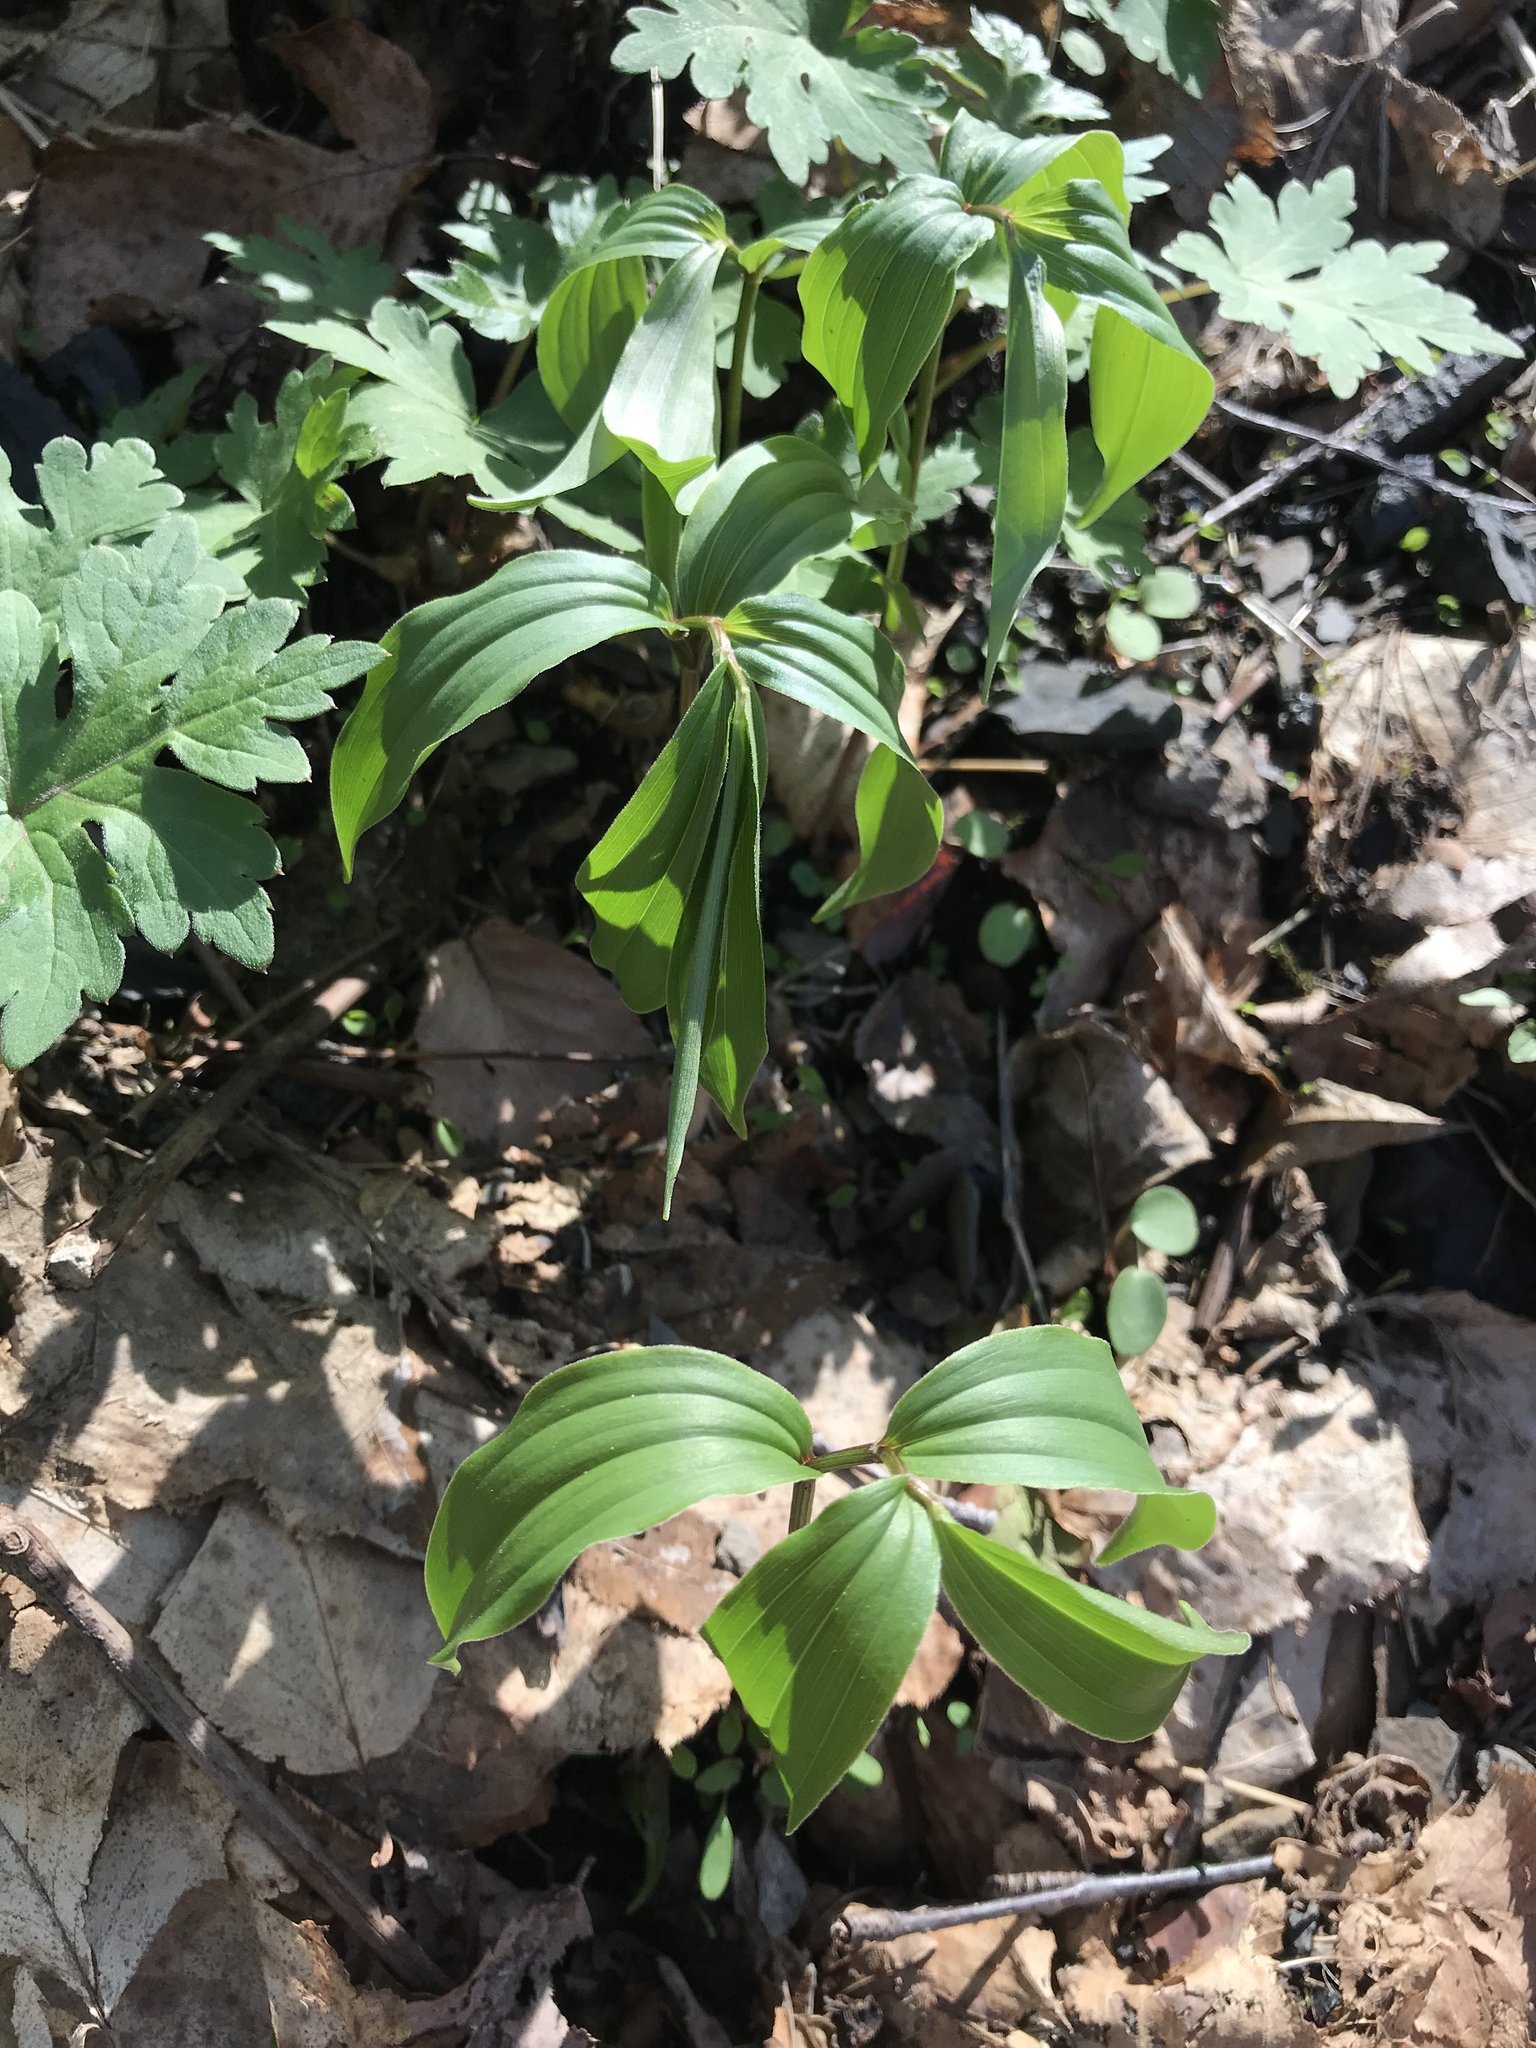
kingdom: Plantae
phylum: Tracheophyta
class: Liliopsida
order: Asparagales
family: Asparagaceae
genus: Maianthemum
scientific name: Maianthemum racemosum
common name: False spikenard
